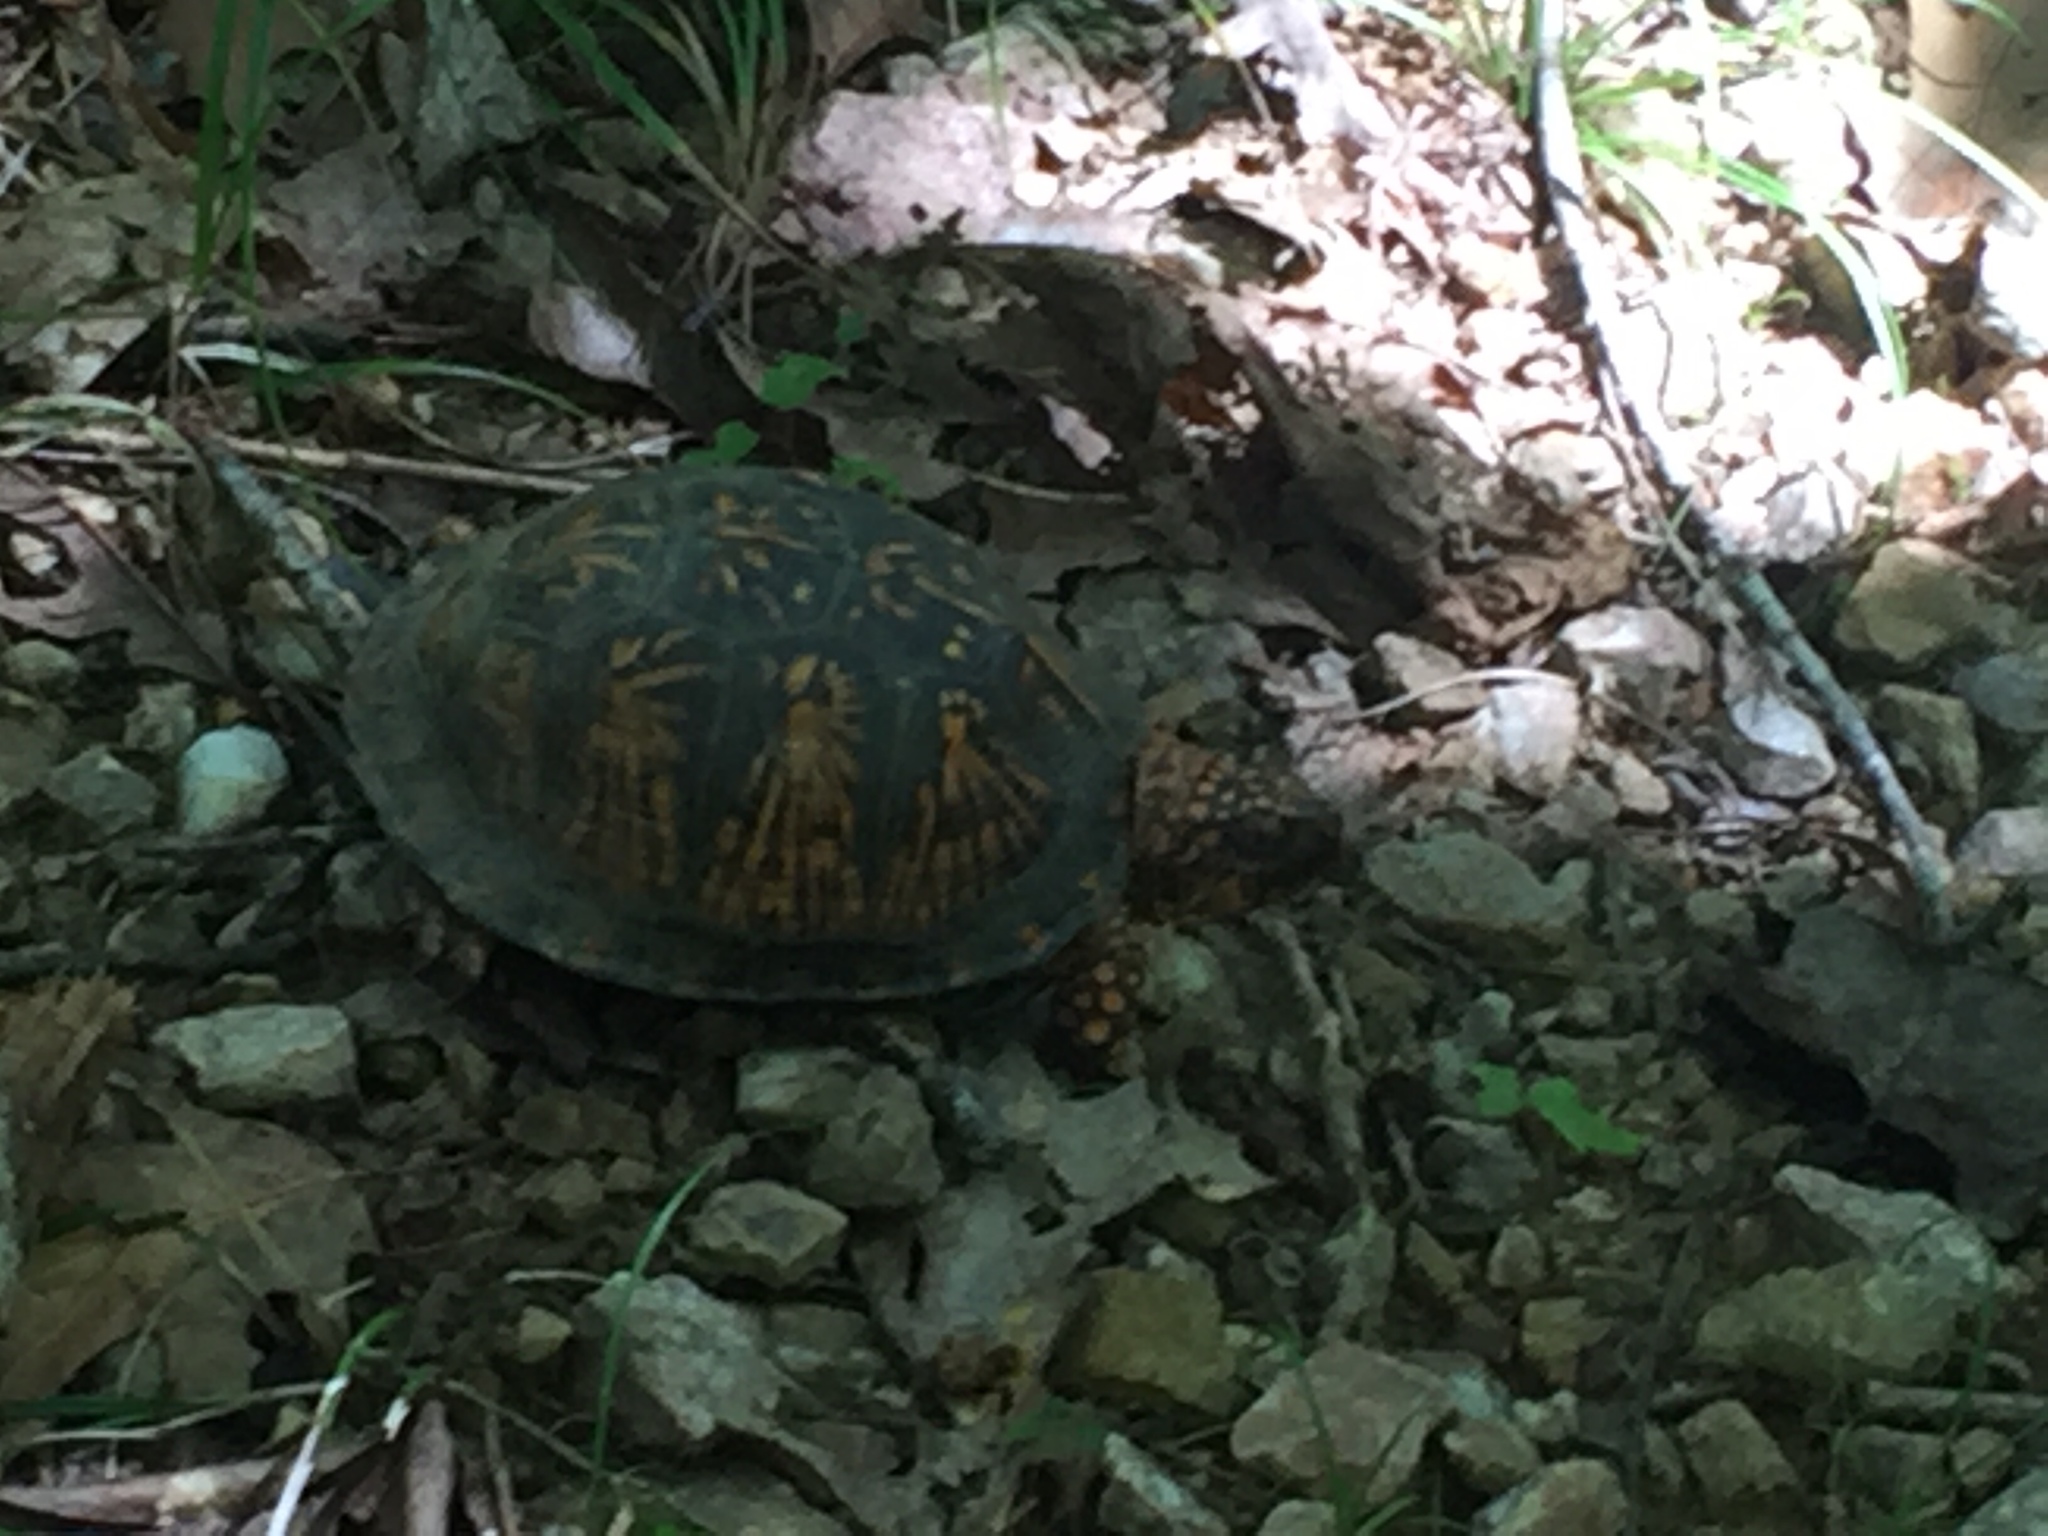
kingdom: Animalia
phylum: Chordata
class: Testudines
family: Emydidae
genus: Terrapene
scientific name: Terrapene carolina
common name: Common box turtle
